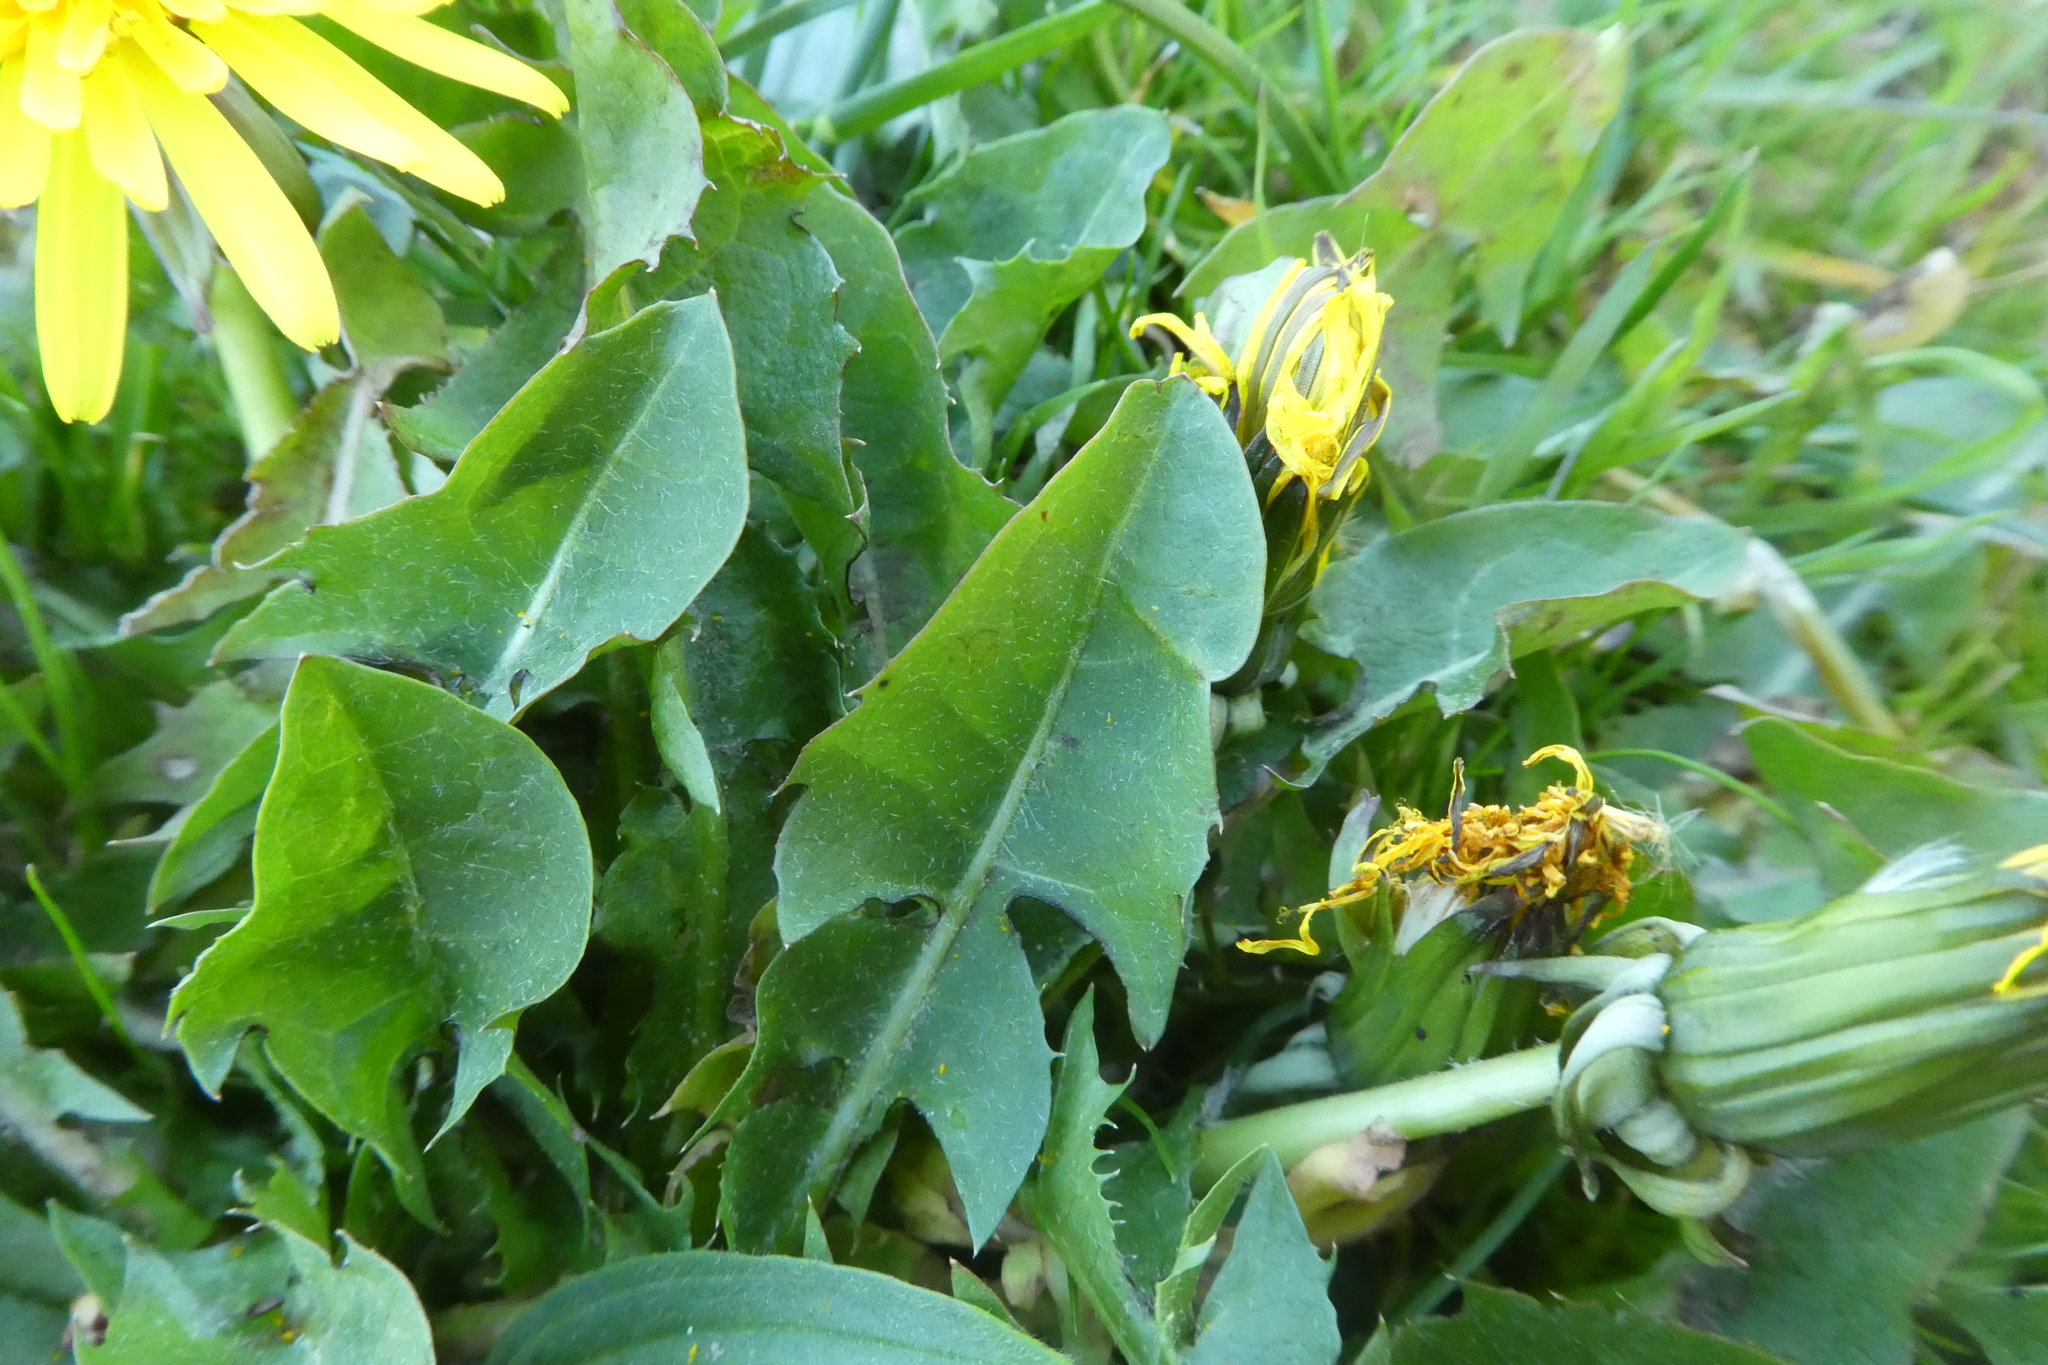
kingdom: Plantae
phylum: Tracheophyta
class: Magnoliopsida
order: Asterales
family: Asteraceae
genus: Taraxacum
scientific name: Taraxacum
